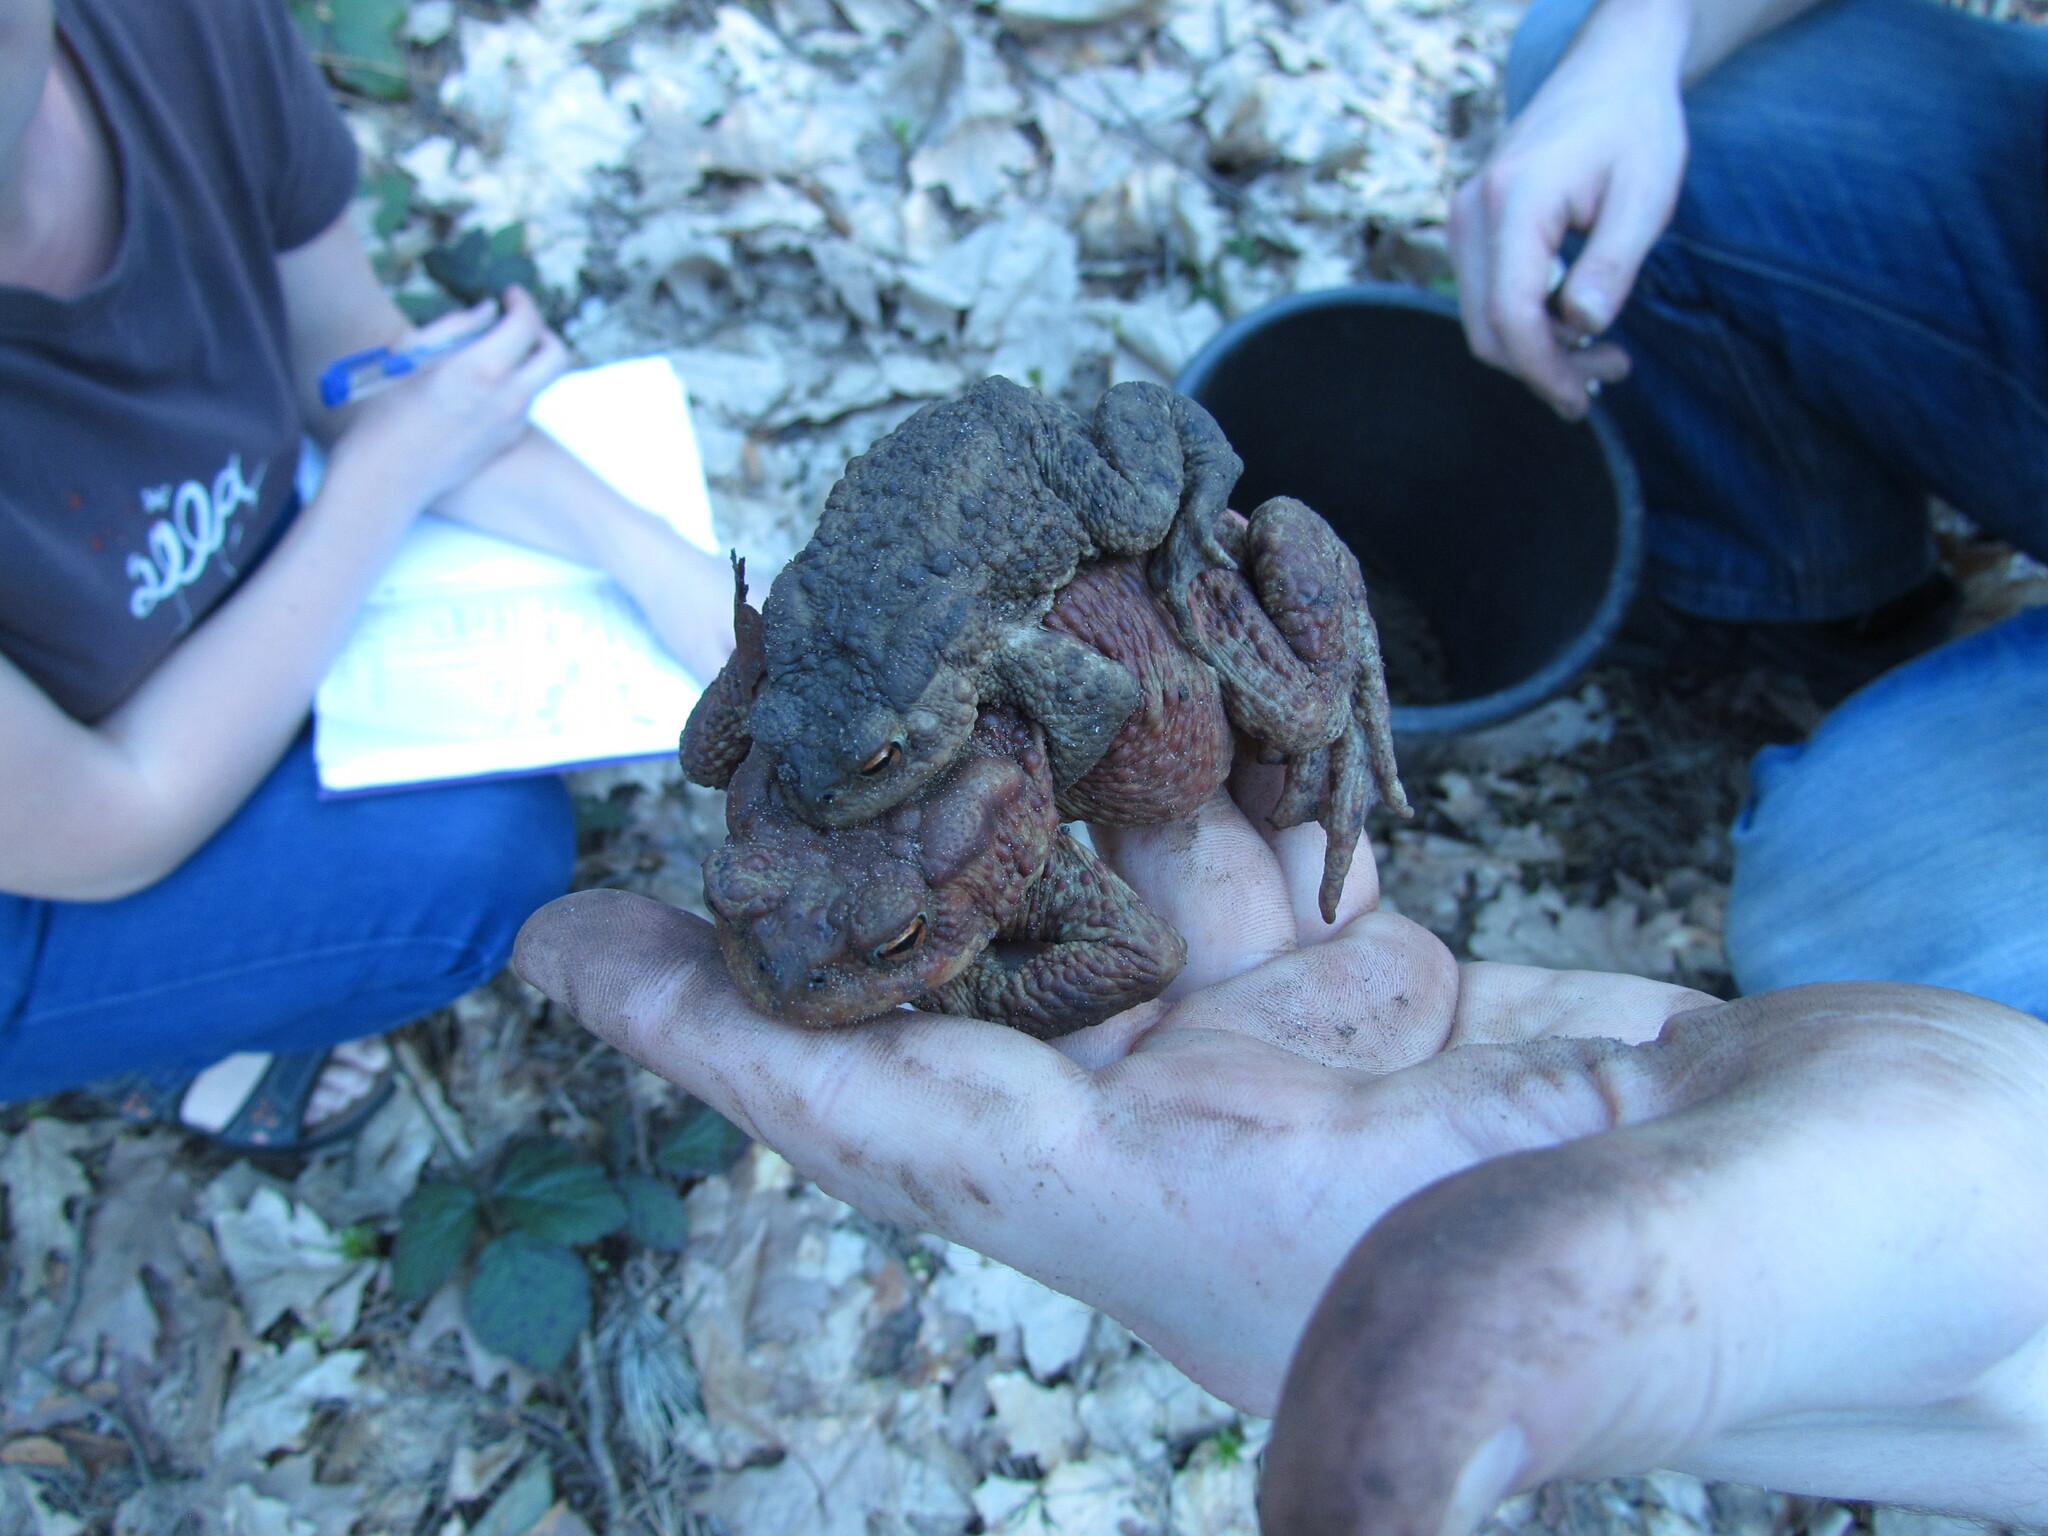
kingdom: Animalia
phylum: Chordata
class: Amphibia
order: Anura
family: Bufonidae
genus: Bufo
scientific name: Bufo bufo
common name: Common toad
